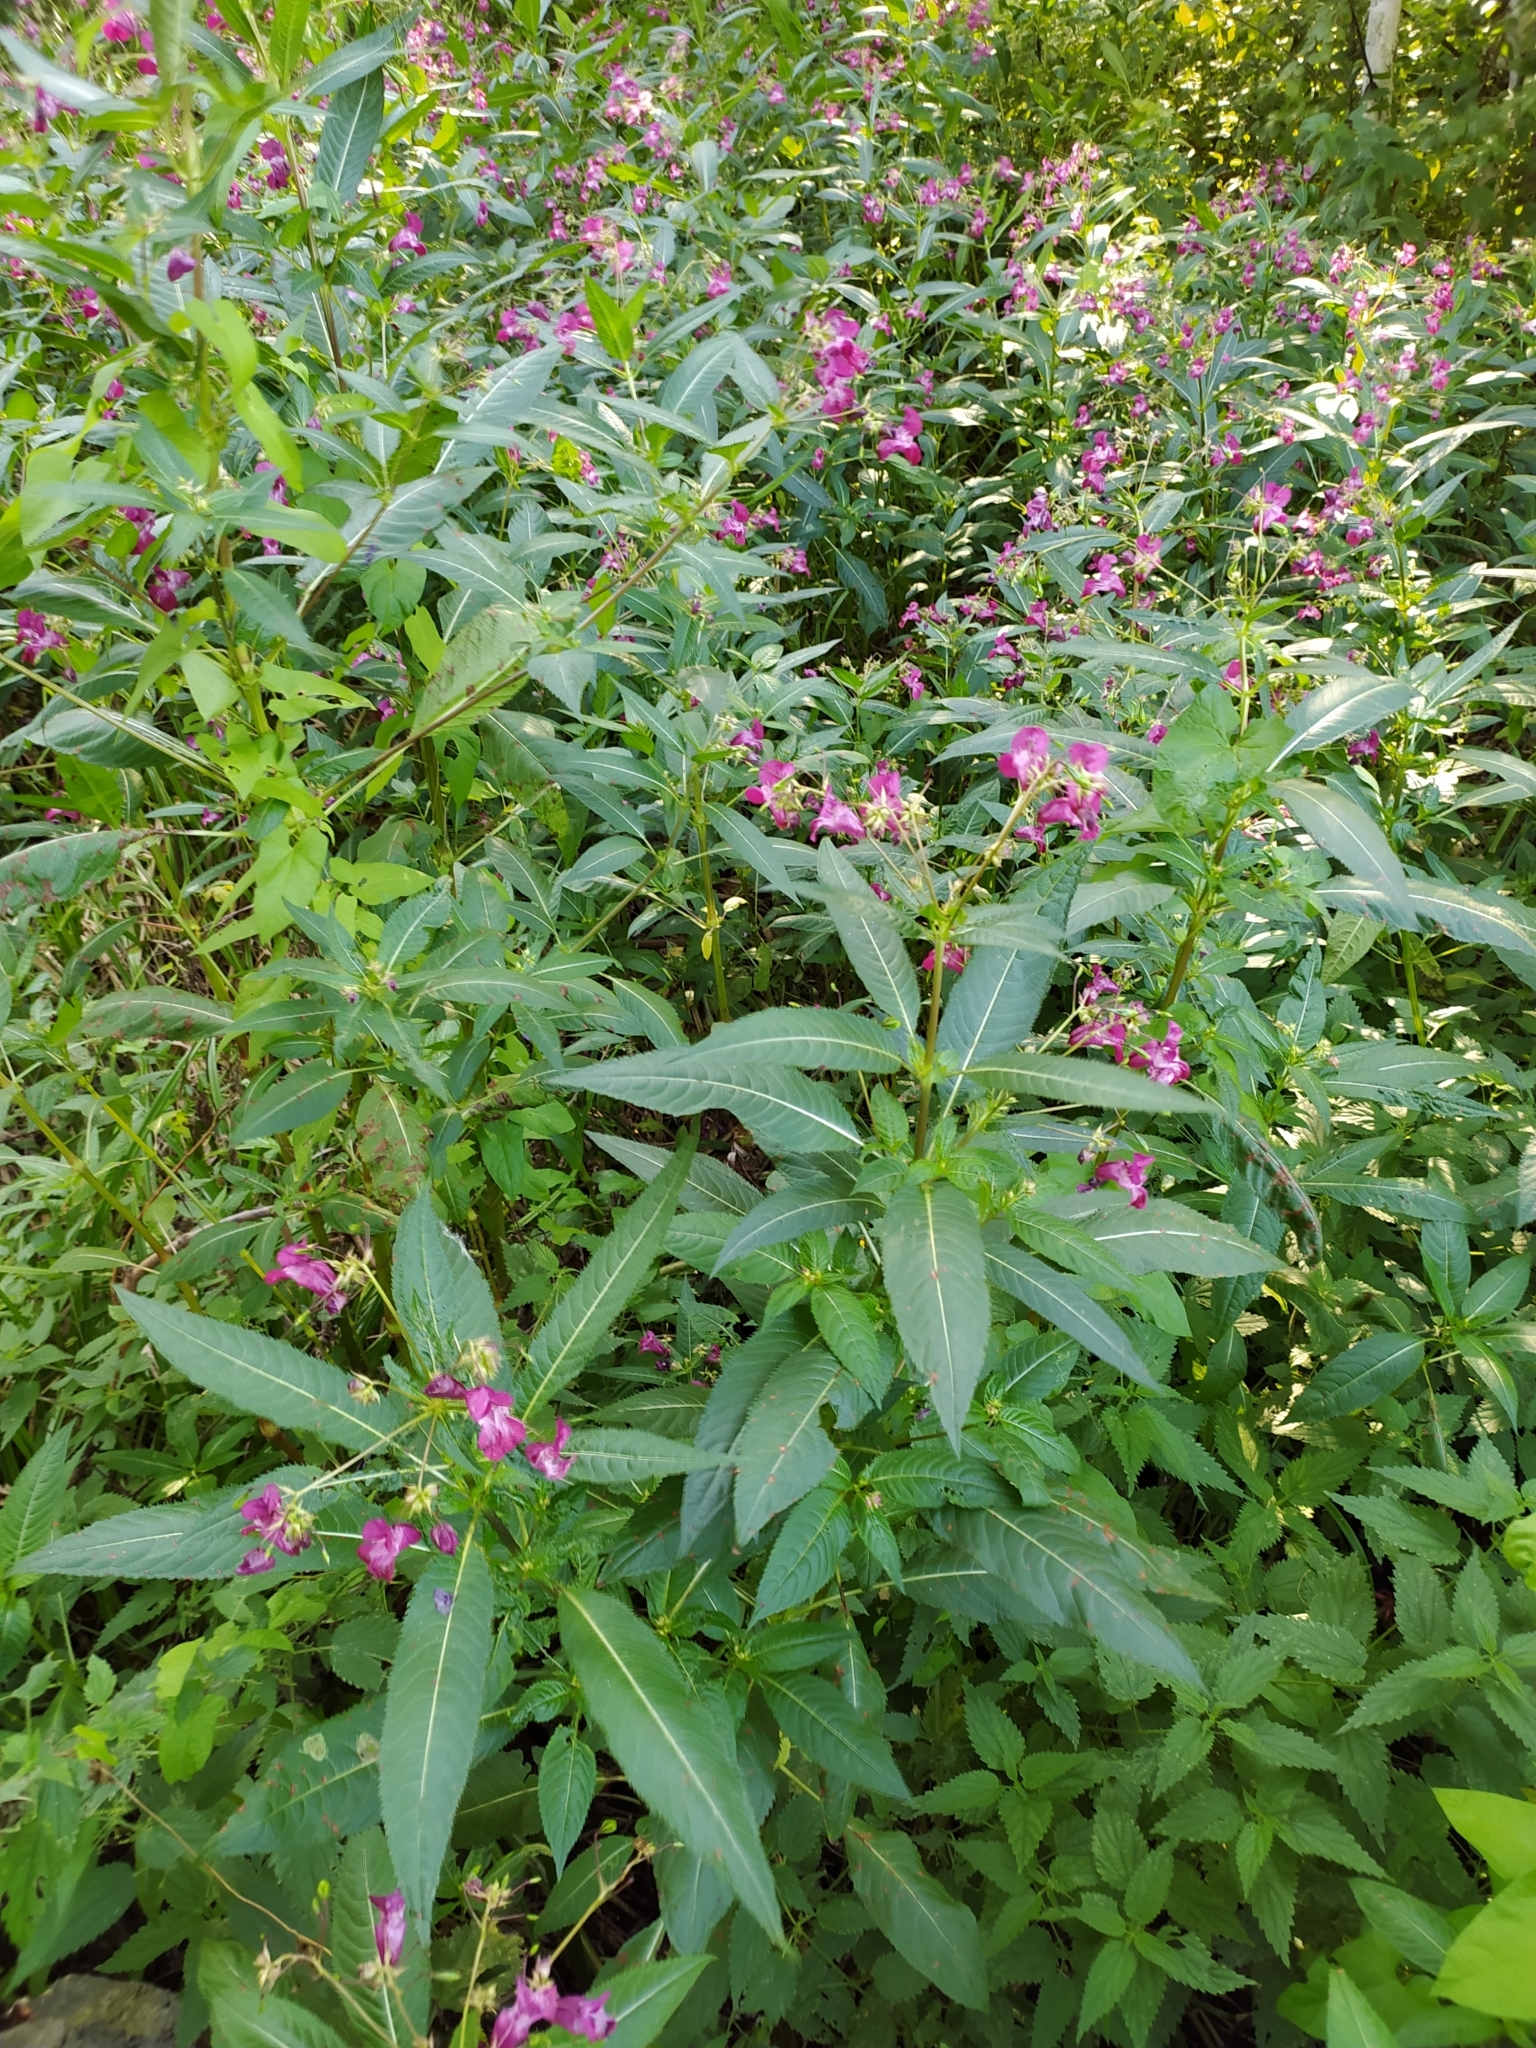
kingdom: Plantae
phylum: Tracheophyta
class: Magnoliopsida
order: Ericales
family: Balsaminaceae
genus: Impatiens
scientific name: Impatiens glandulifera
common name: Himalayan balsam
